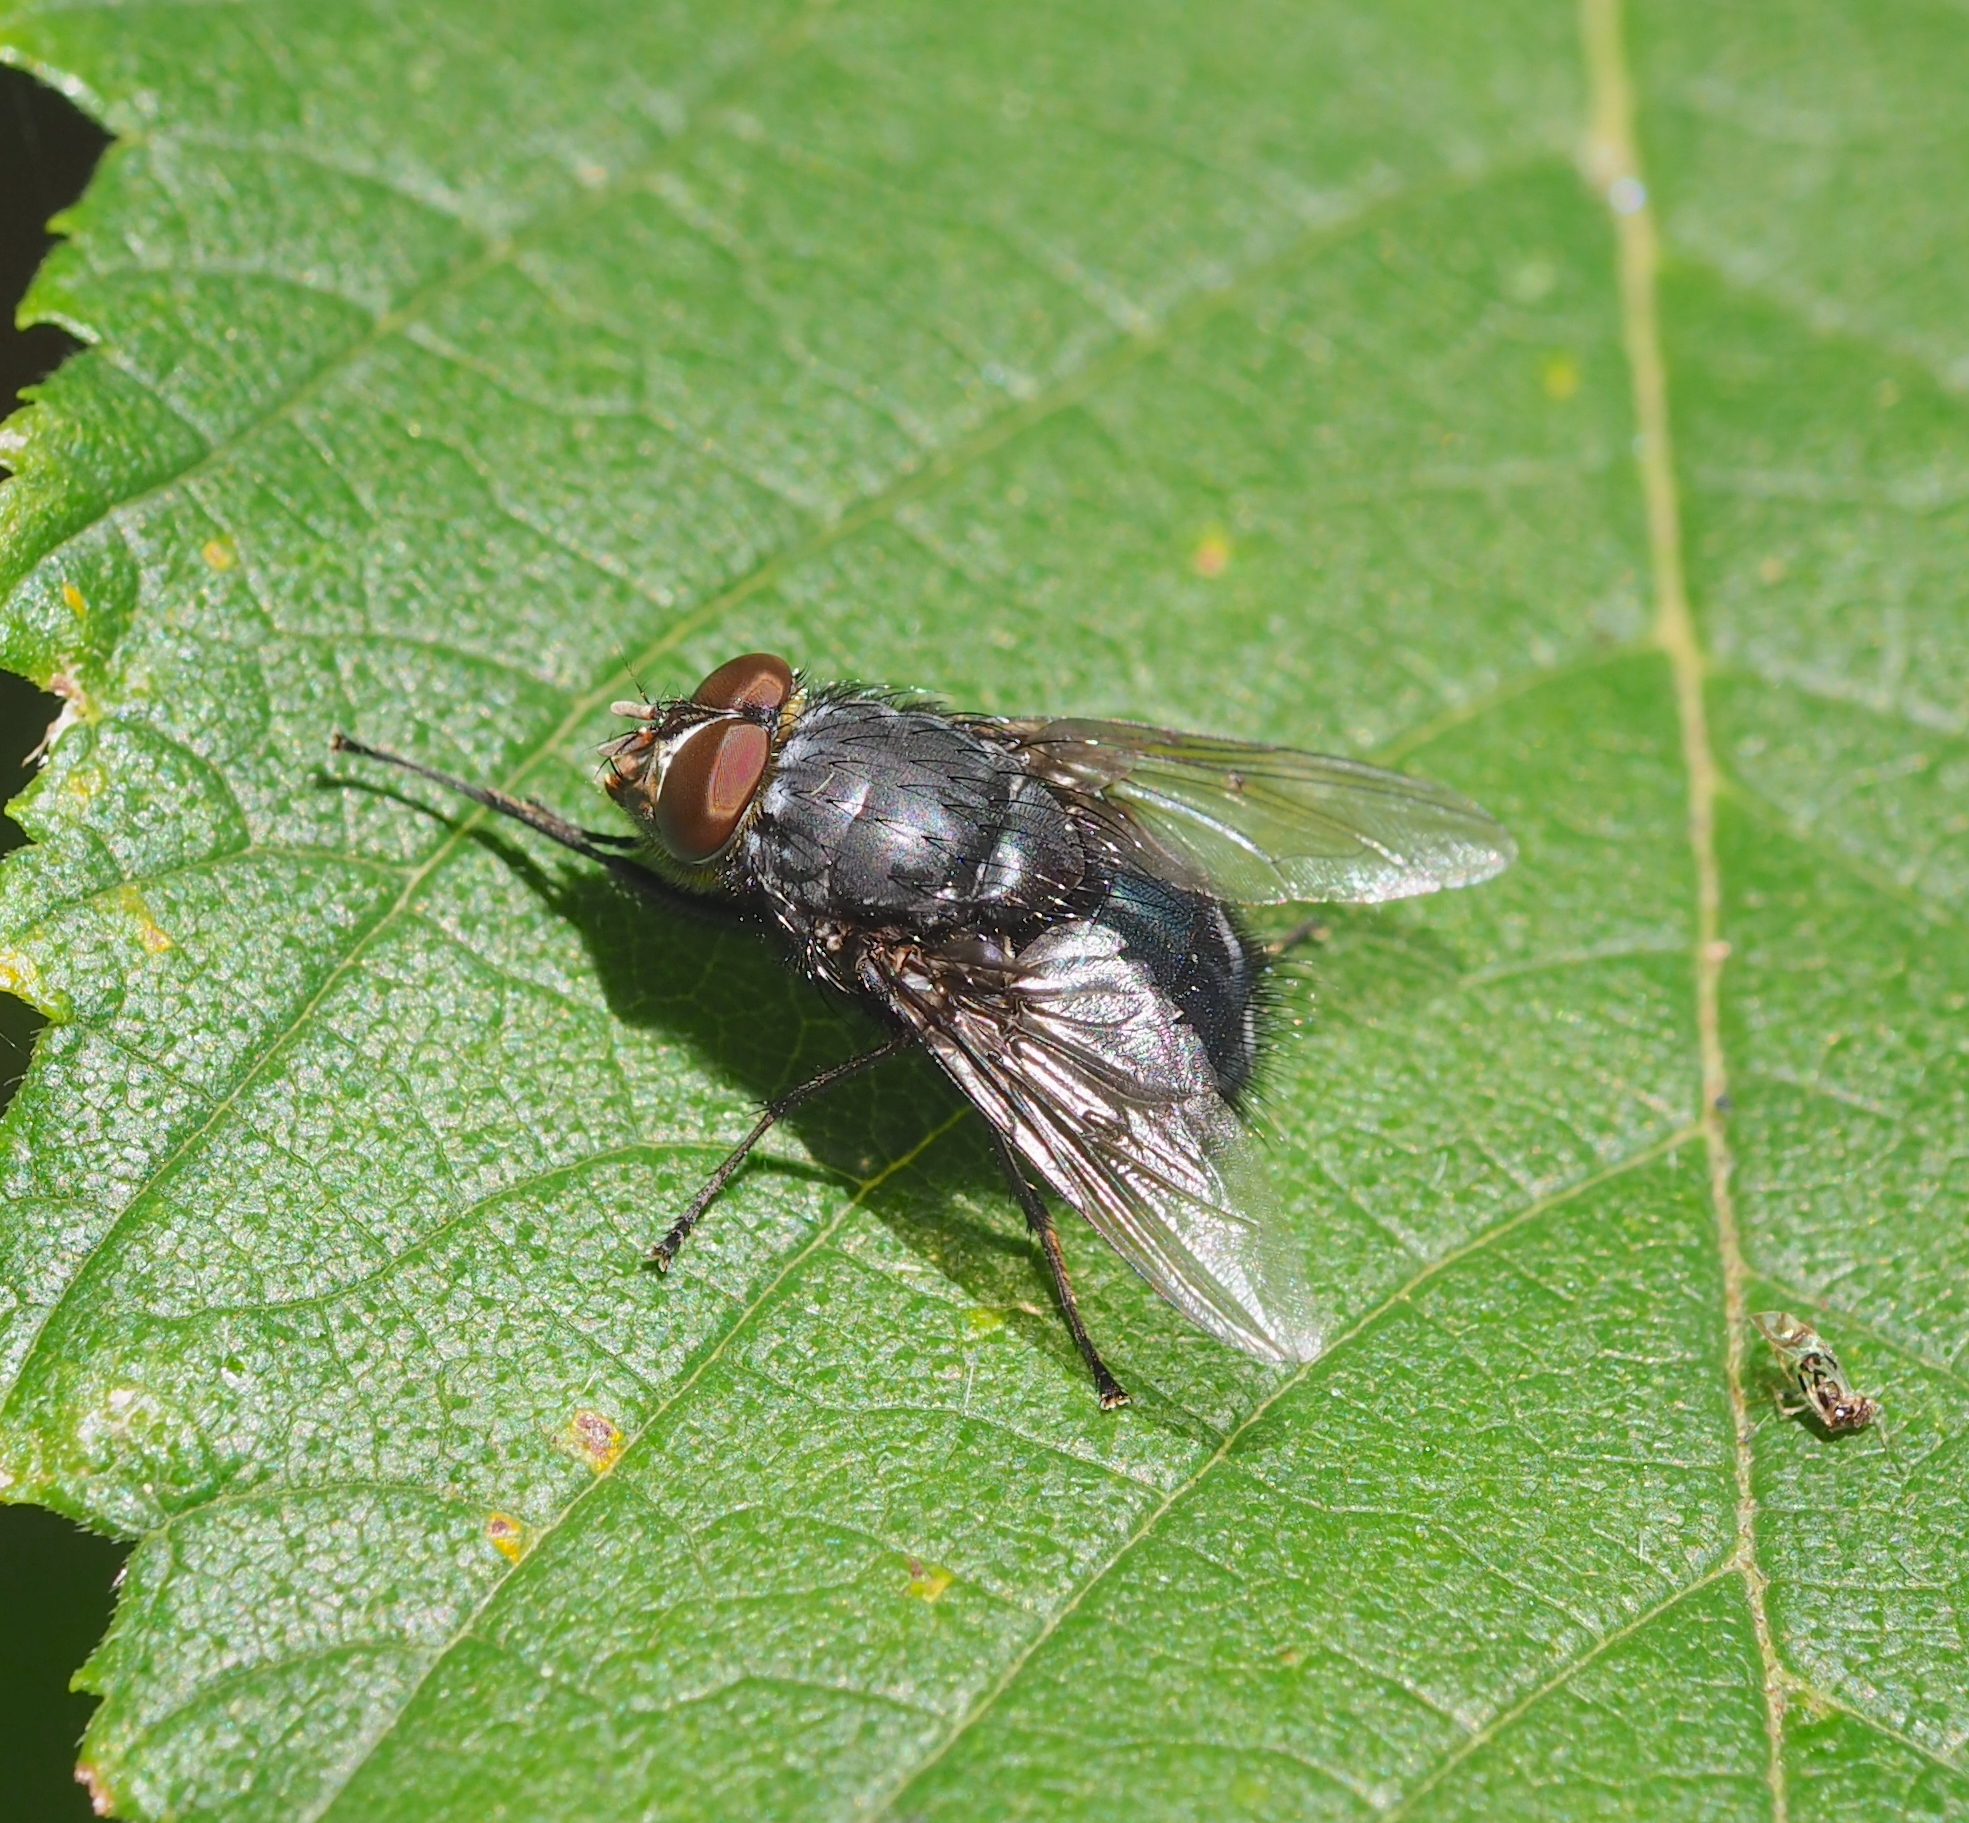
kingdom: Animalia
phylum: Arthropoda
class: Insecta
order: Diptera
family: Calliphoridae
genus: Calliphora
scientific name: Calliphora vomitoria
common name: Blue bottle fly
